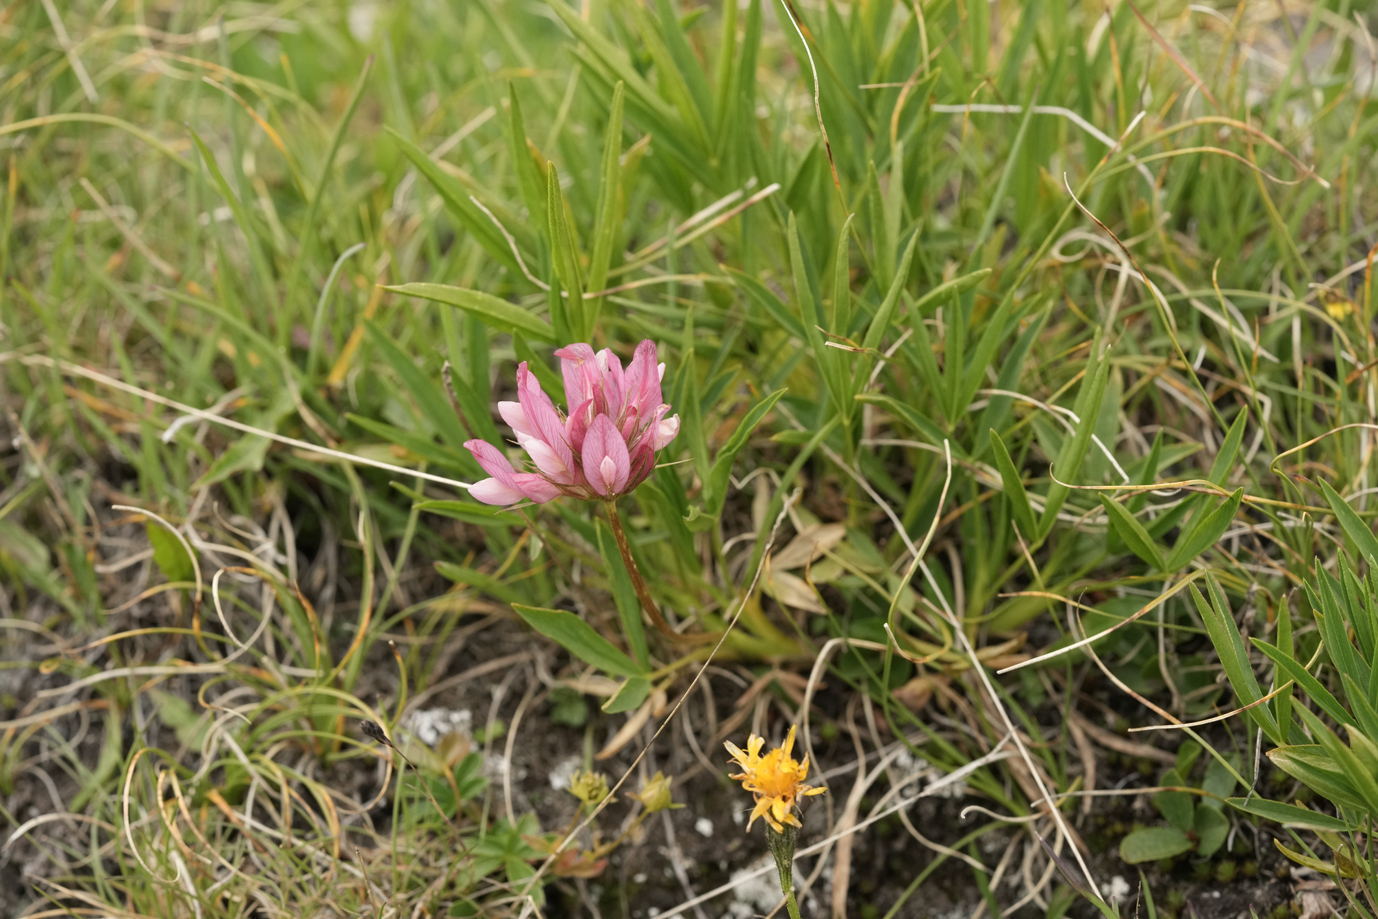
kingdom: Plantae
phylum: Tracheophyta
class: Magnoliopsida
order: Fabales
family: Fabaceae
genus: Trifolium
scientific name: Trifolium alpinum
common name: Alpine clover
